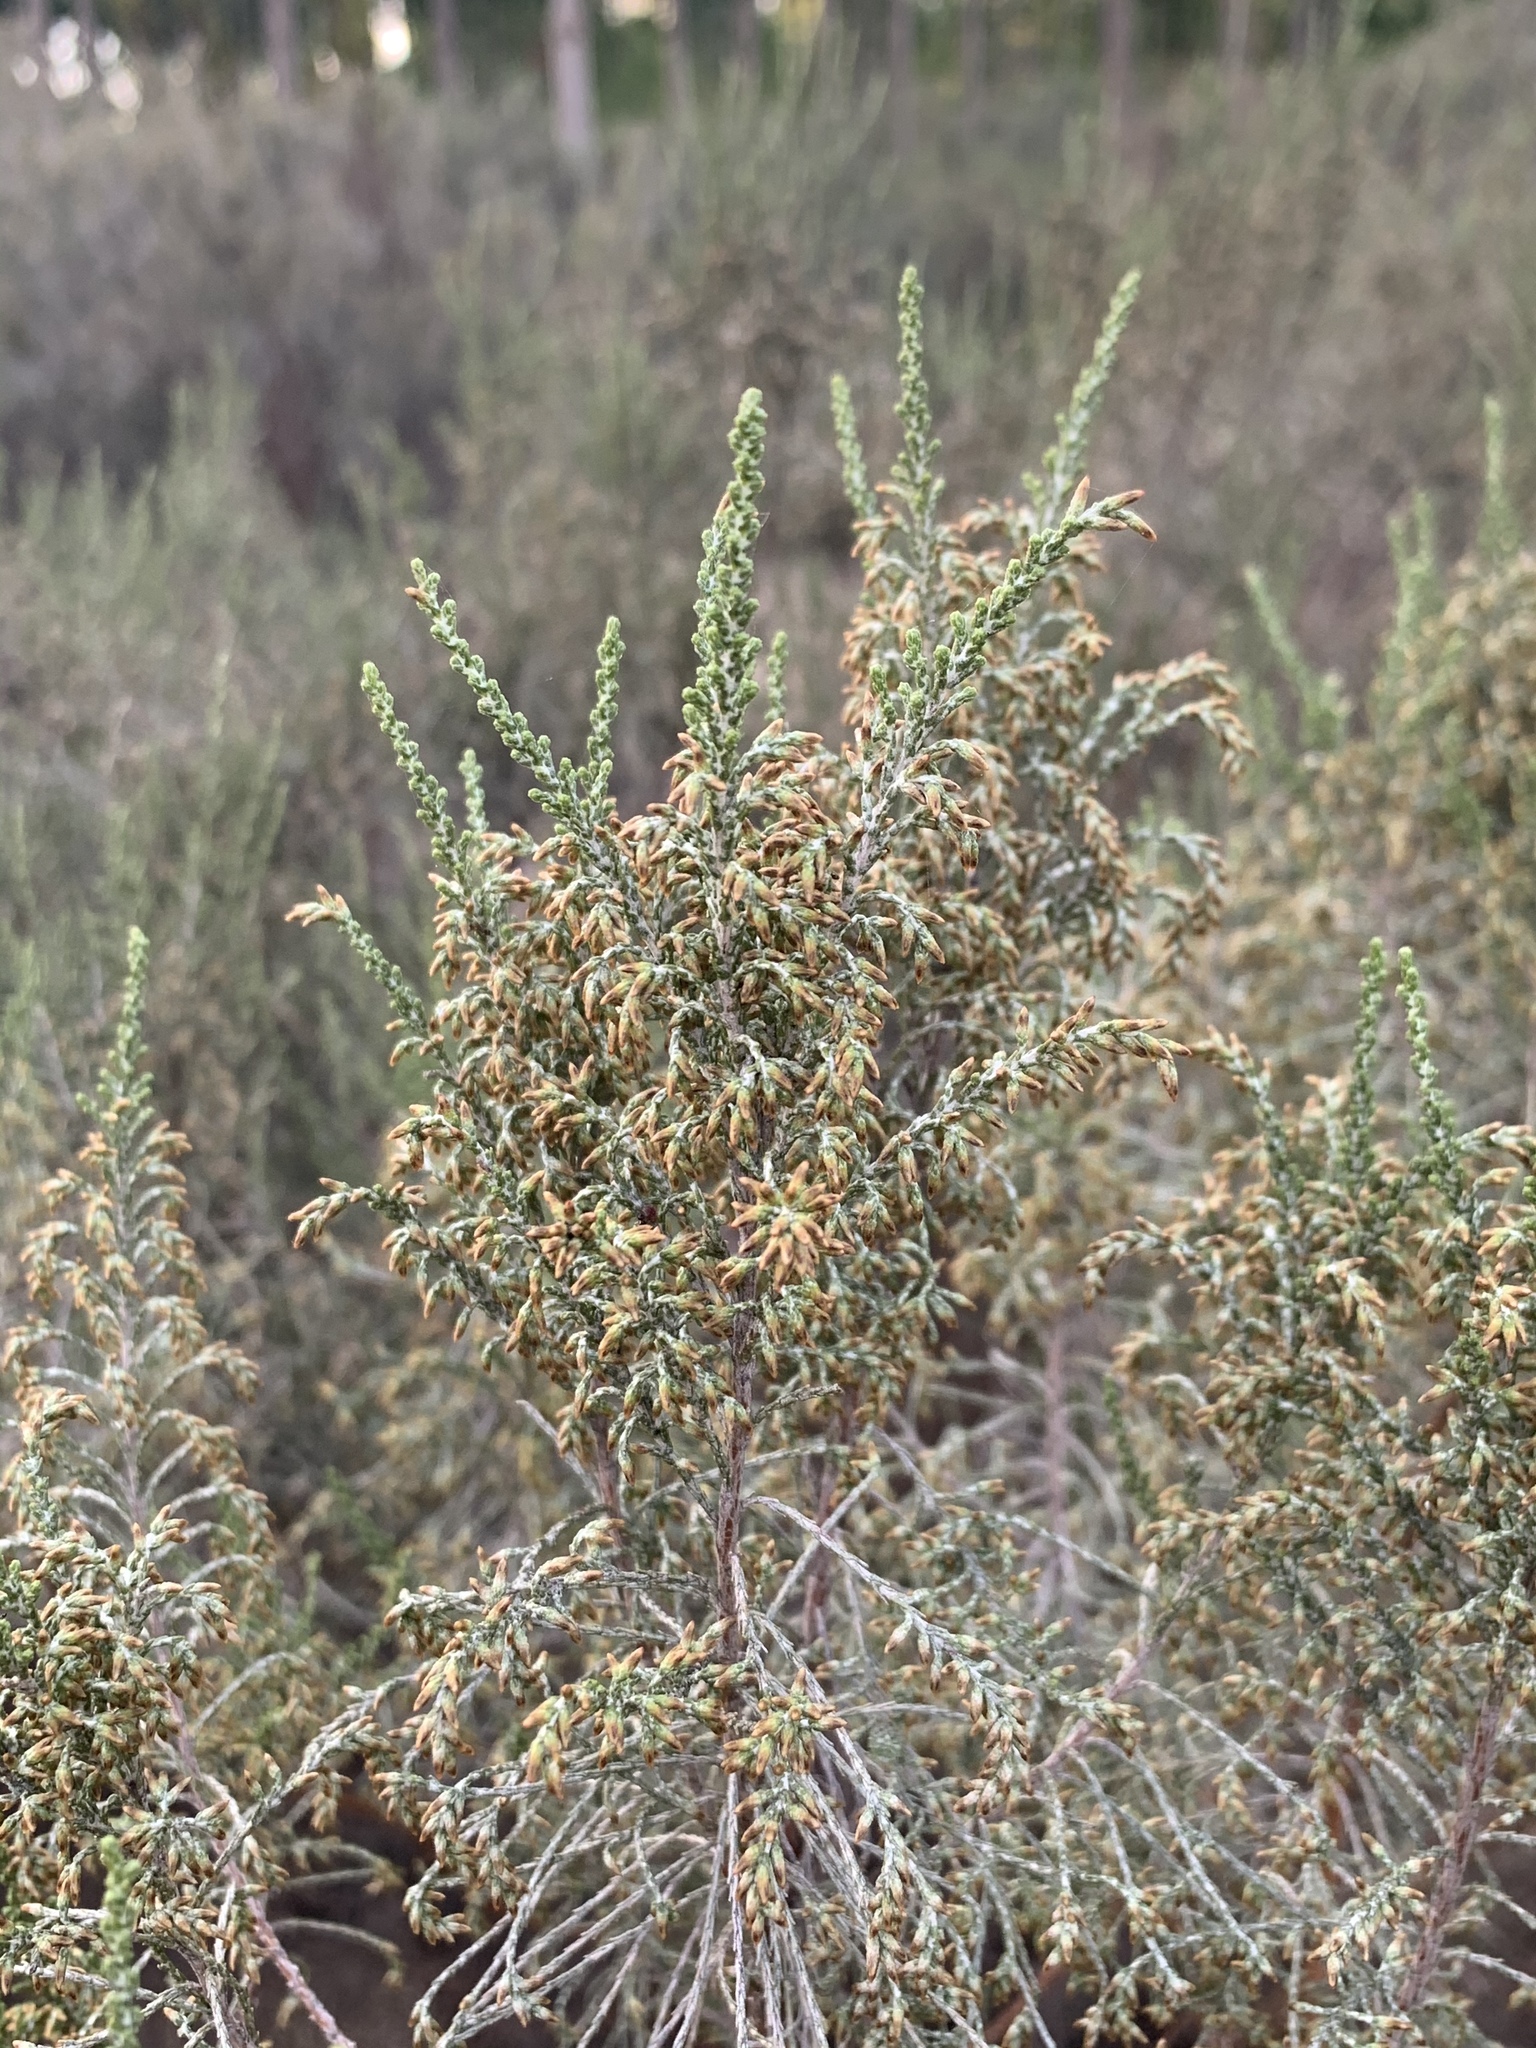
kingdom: Plantae
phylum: Tracheophyta
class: Magnoliopsida
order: Asterales
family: Asteraceae
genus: Dicerothamnus
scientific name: Dicerothamnus rhinocerotis
